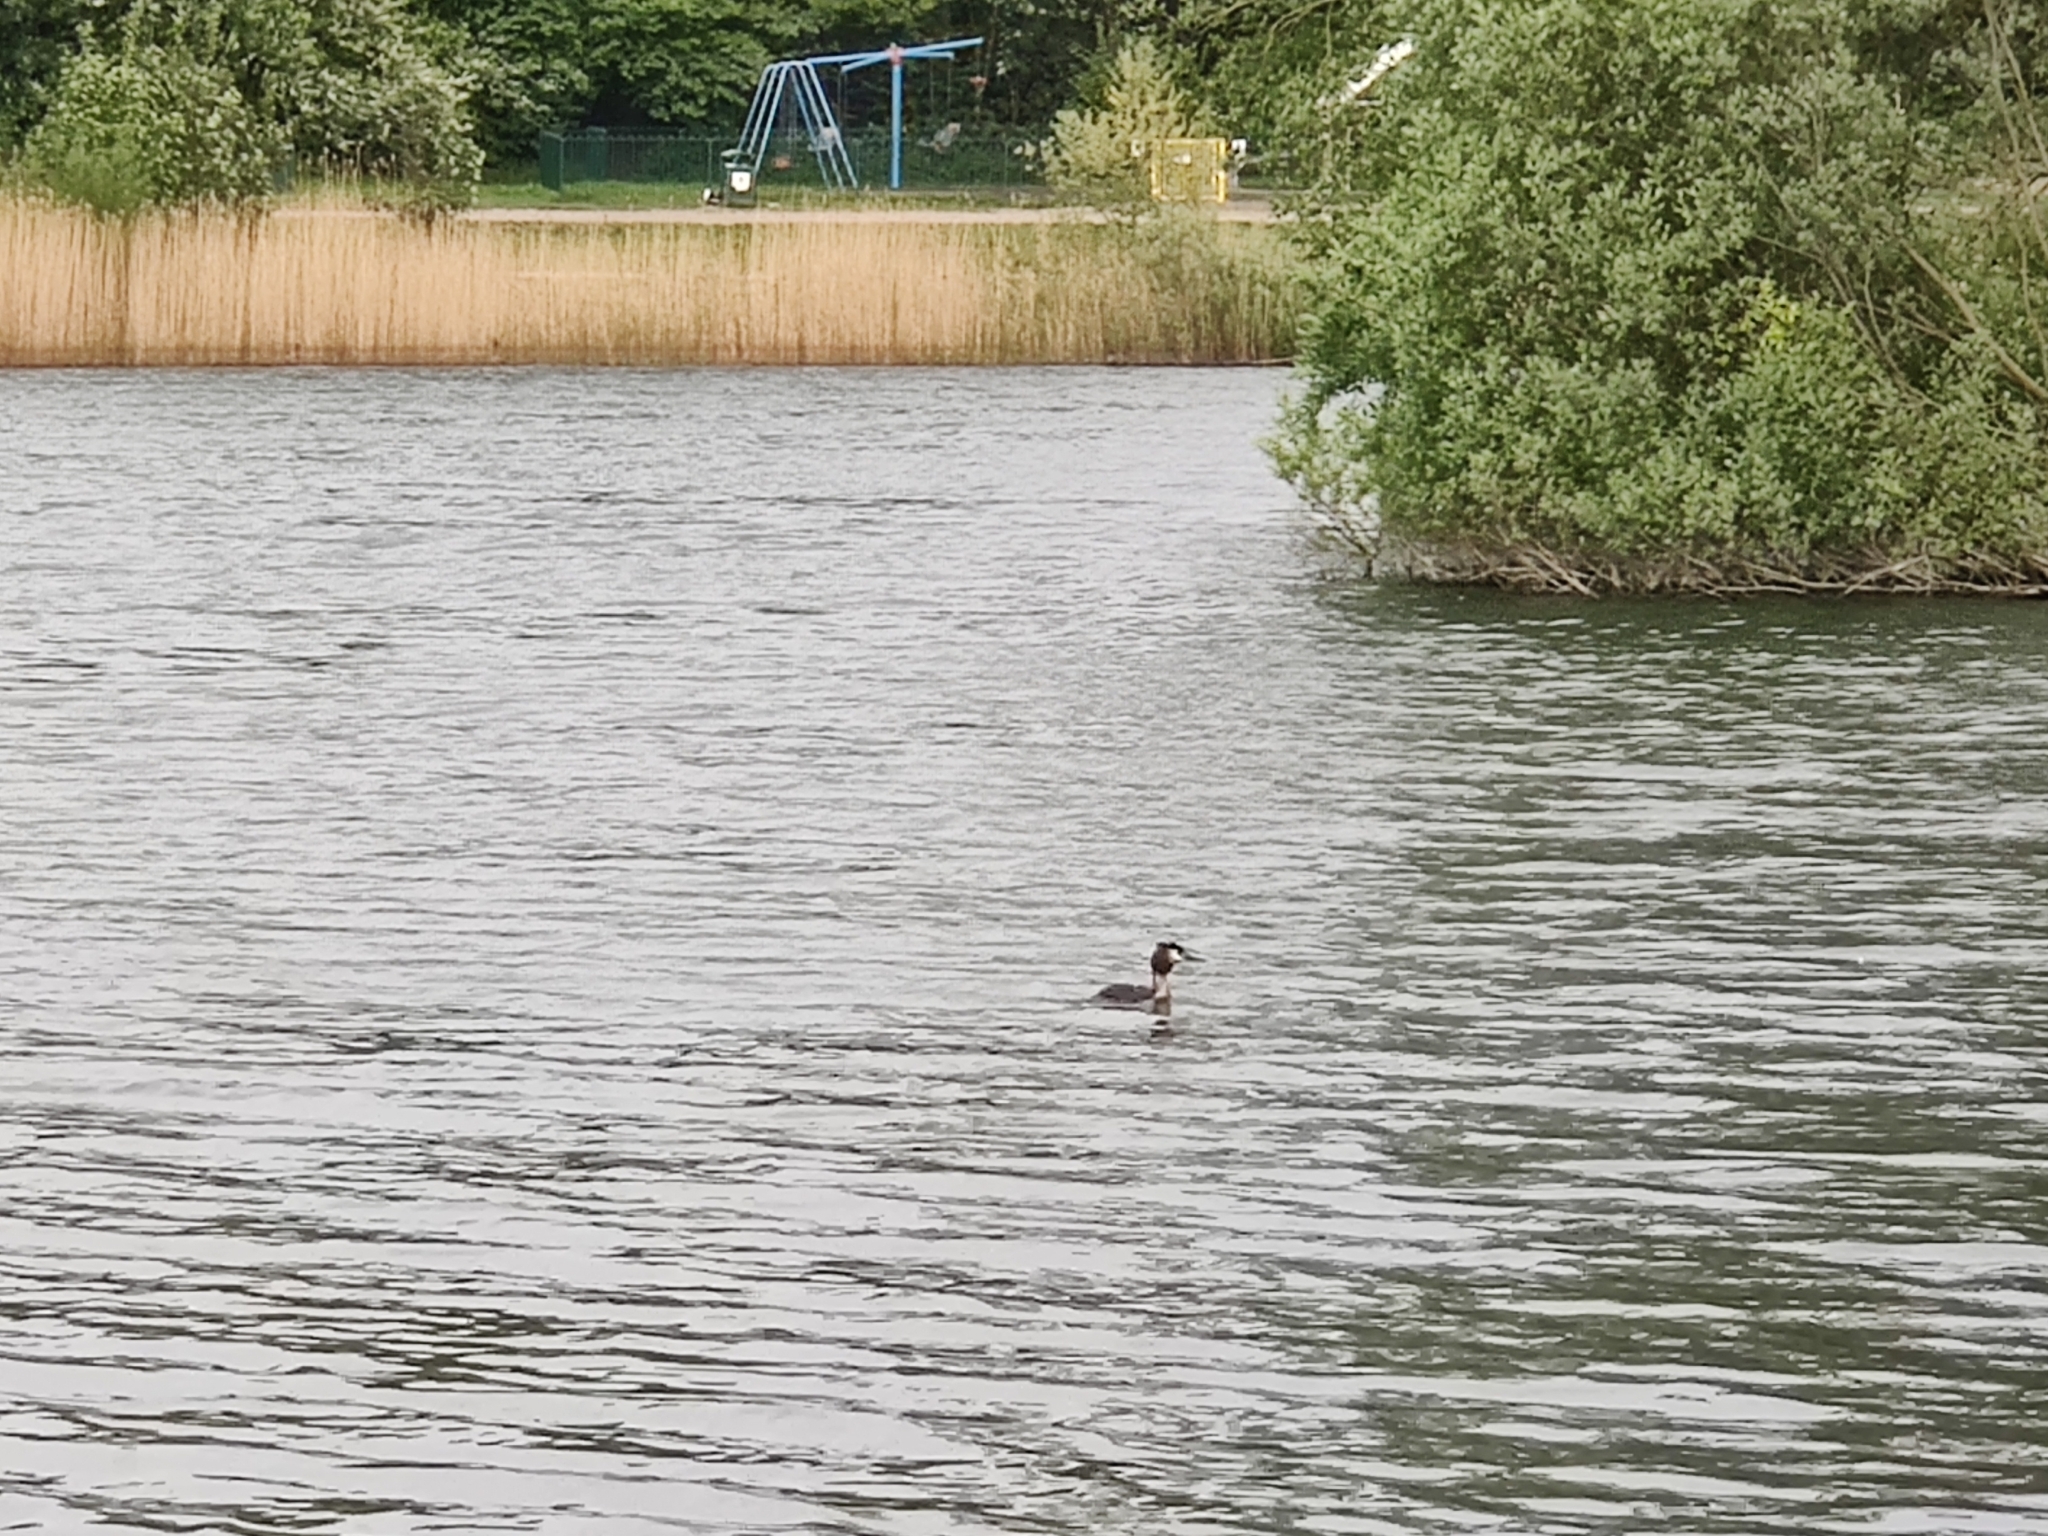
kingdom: Animalia
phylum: Chordata
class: Aves
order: Podicipediformes
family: Podicipedidae
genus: Podiceps
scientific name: Podiceps cristatus
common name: Great crested grebe
